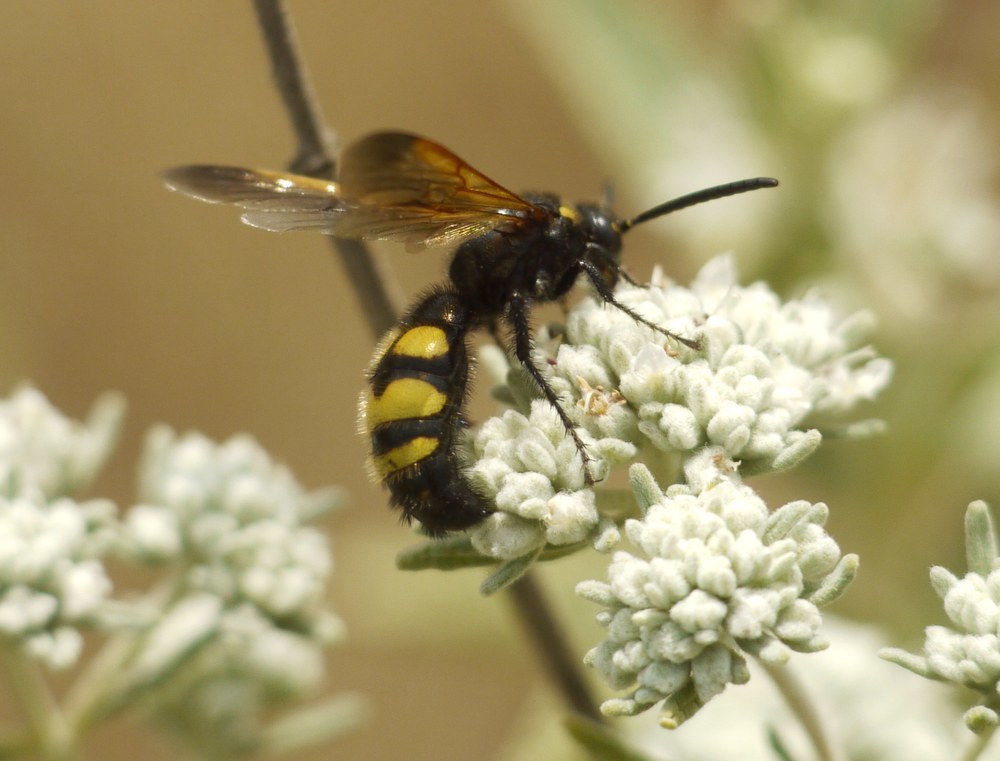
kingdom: Animalia
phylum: Arthropoda
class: Insecta
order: Hymenoptera
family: Scoliidae
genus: Scolia
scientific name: Scolia fuciformis
